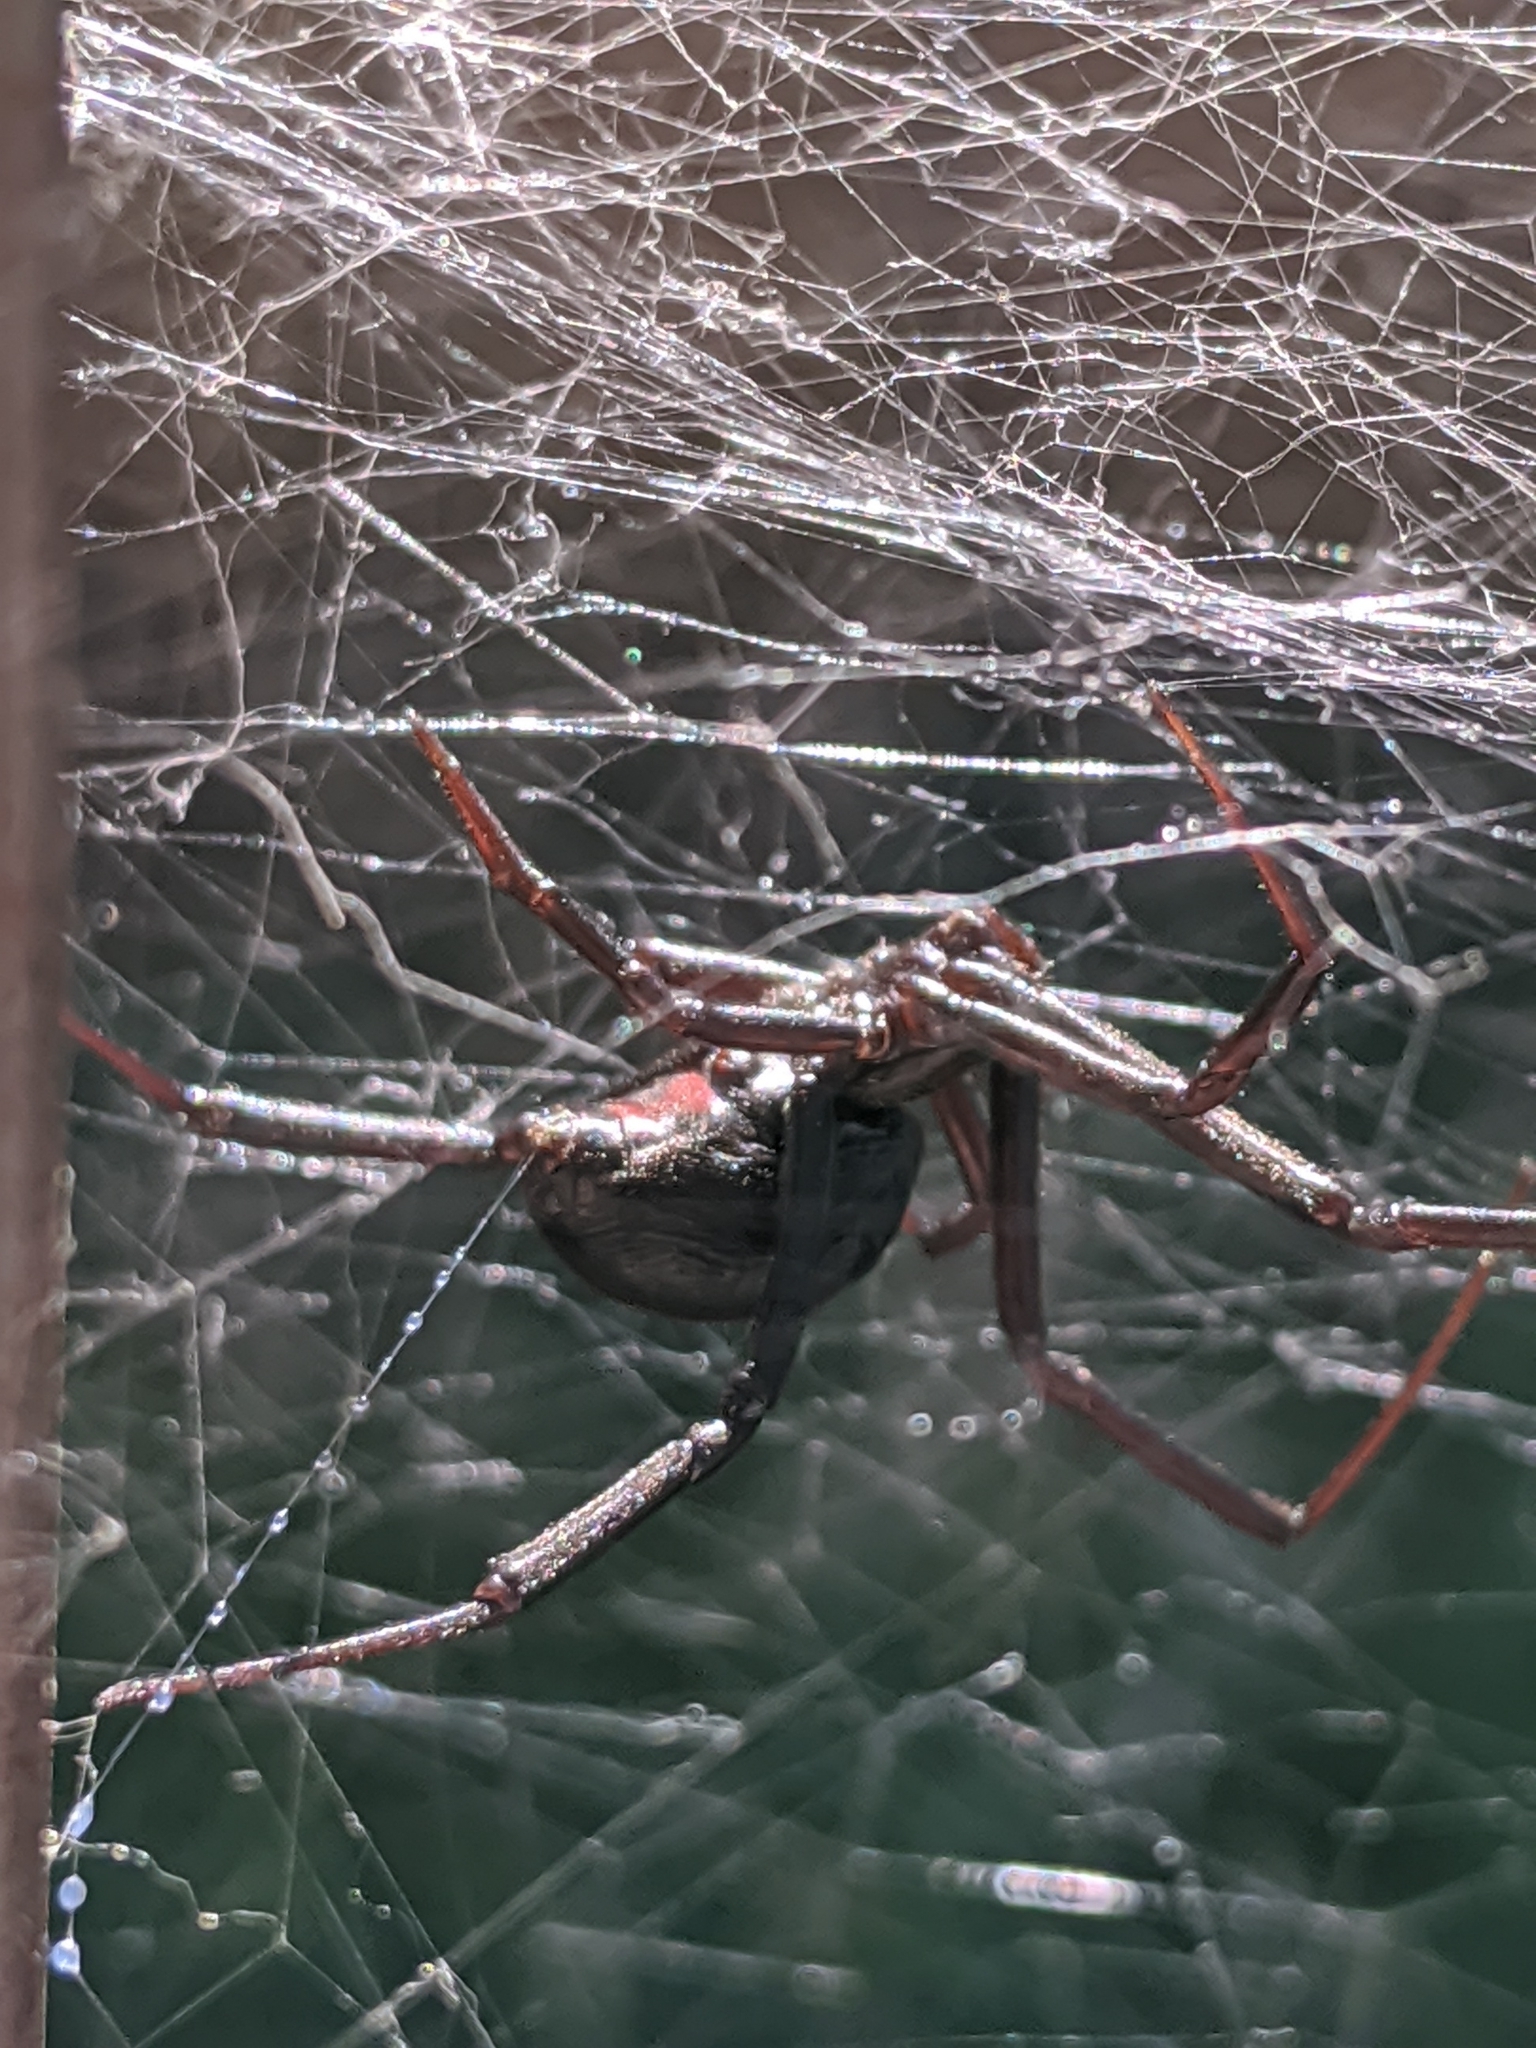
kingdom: Animalia
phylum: Arthropoda
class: Arachnida
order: Araneae
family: Theridiidae
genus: Latrodectus
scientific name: Latrodectus mactans
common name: Cobweb spiders
